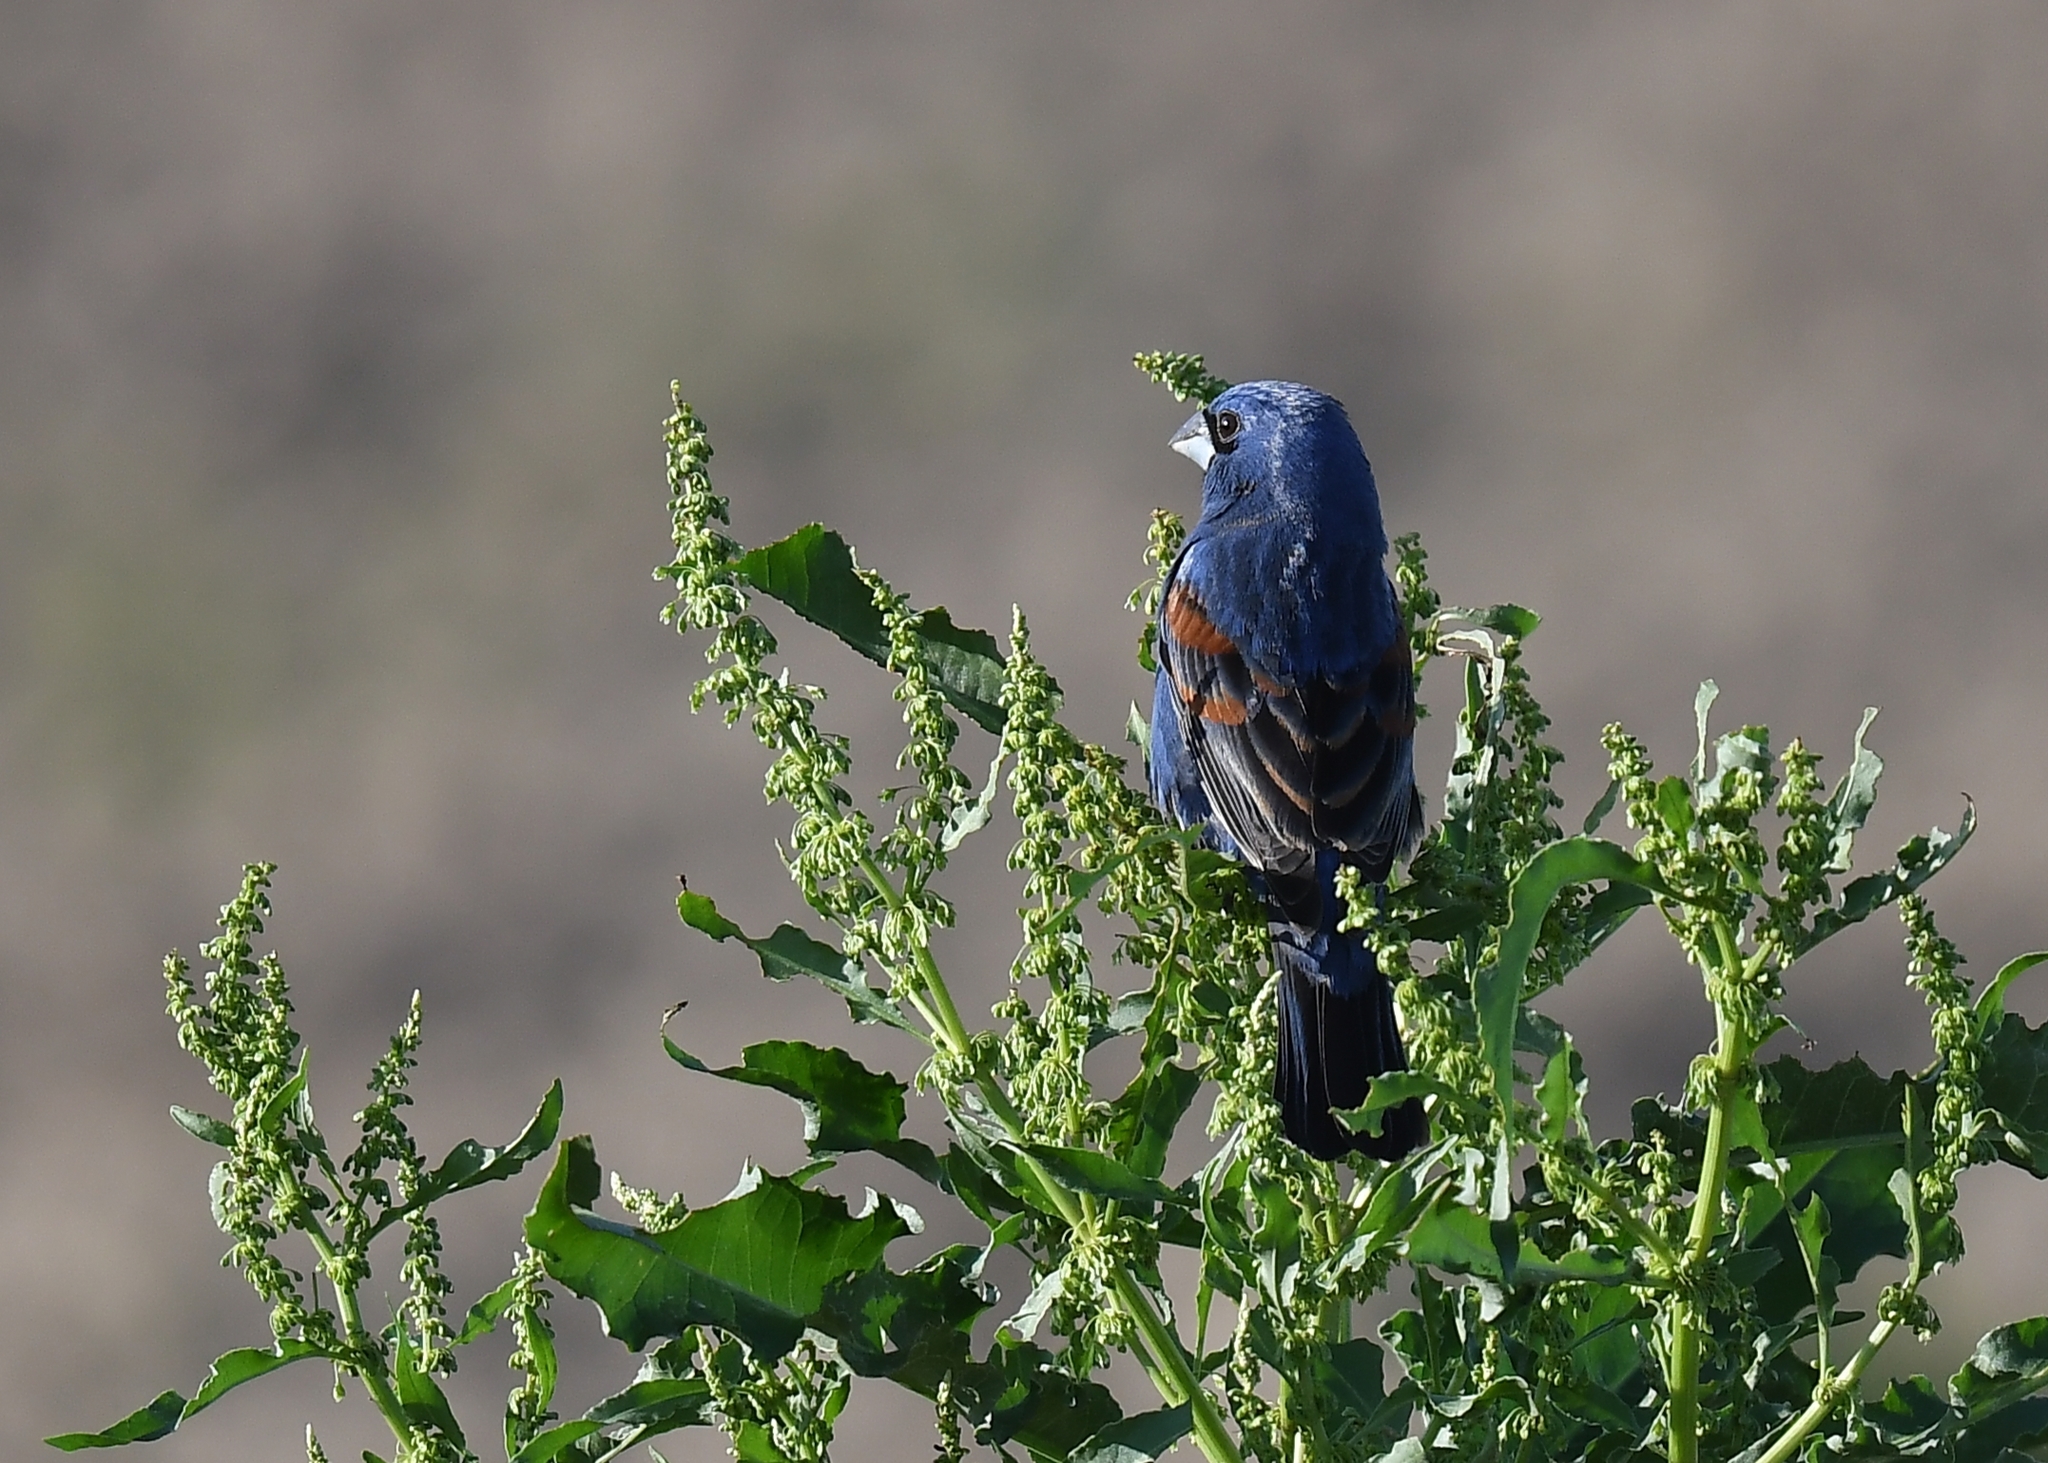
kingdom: Animalia
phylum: Chordata
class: Aves
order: Passeriformes
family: Cardinalidae
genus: Passerina
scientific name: Passerina caerulea
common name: Blue grosbeak
